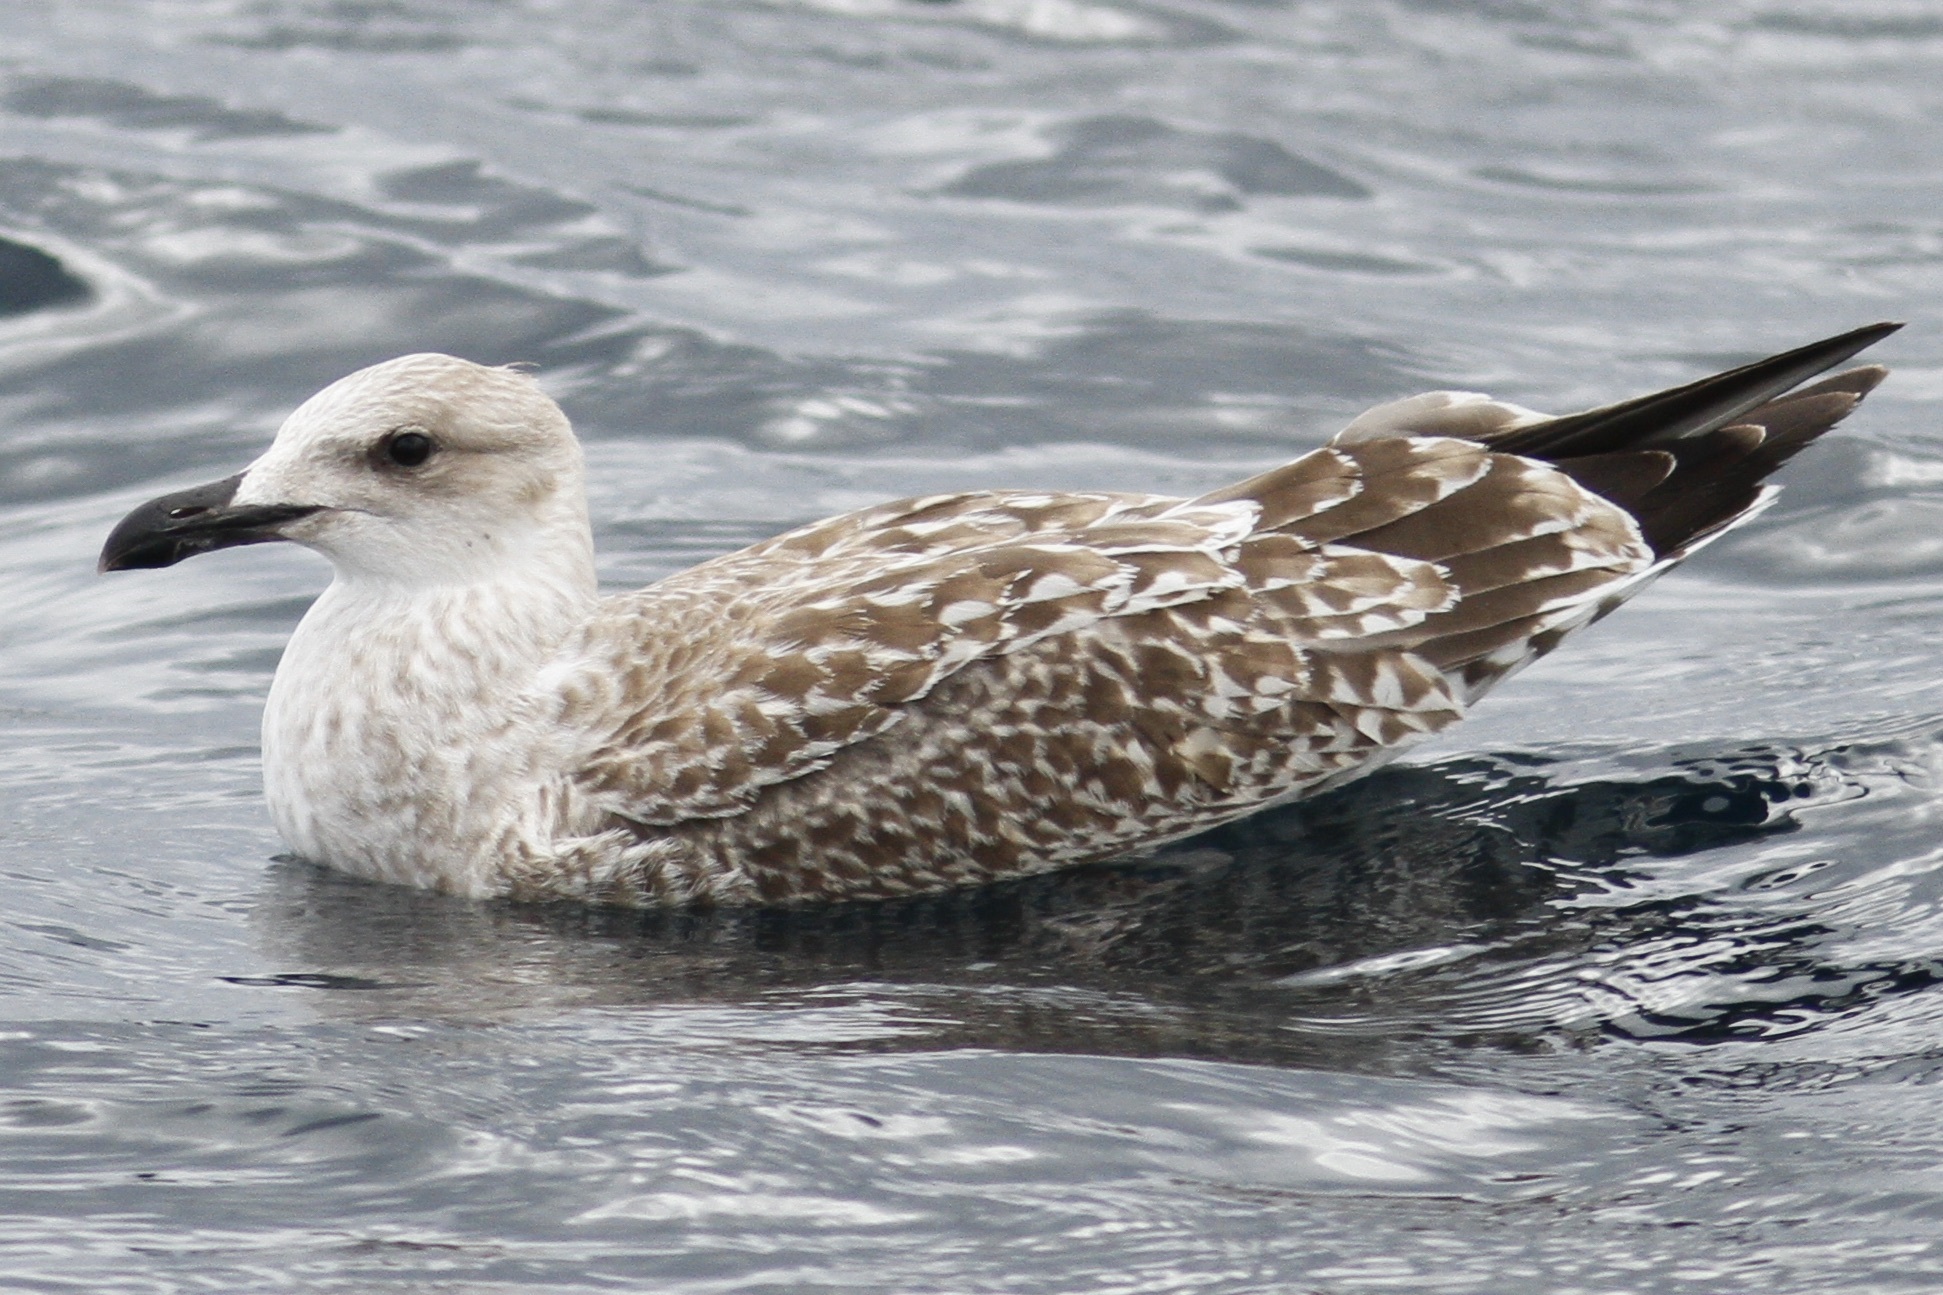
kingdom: Animalia
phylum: Chordata
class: Aves
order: Charadriiformes
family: Laridae
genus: Larus
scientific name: Larus michahellis
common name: Yellow-legged gull
